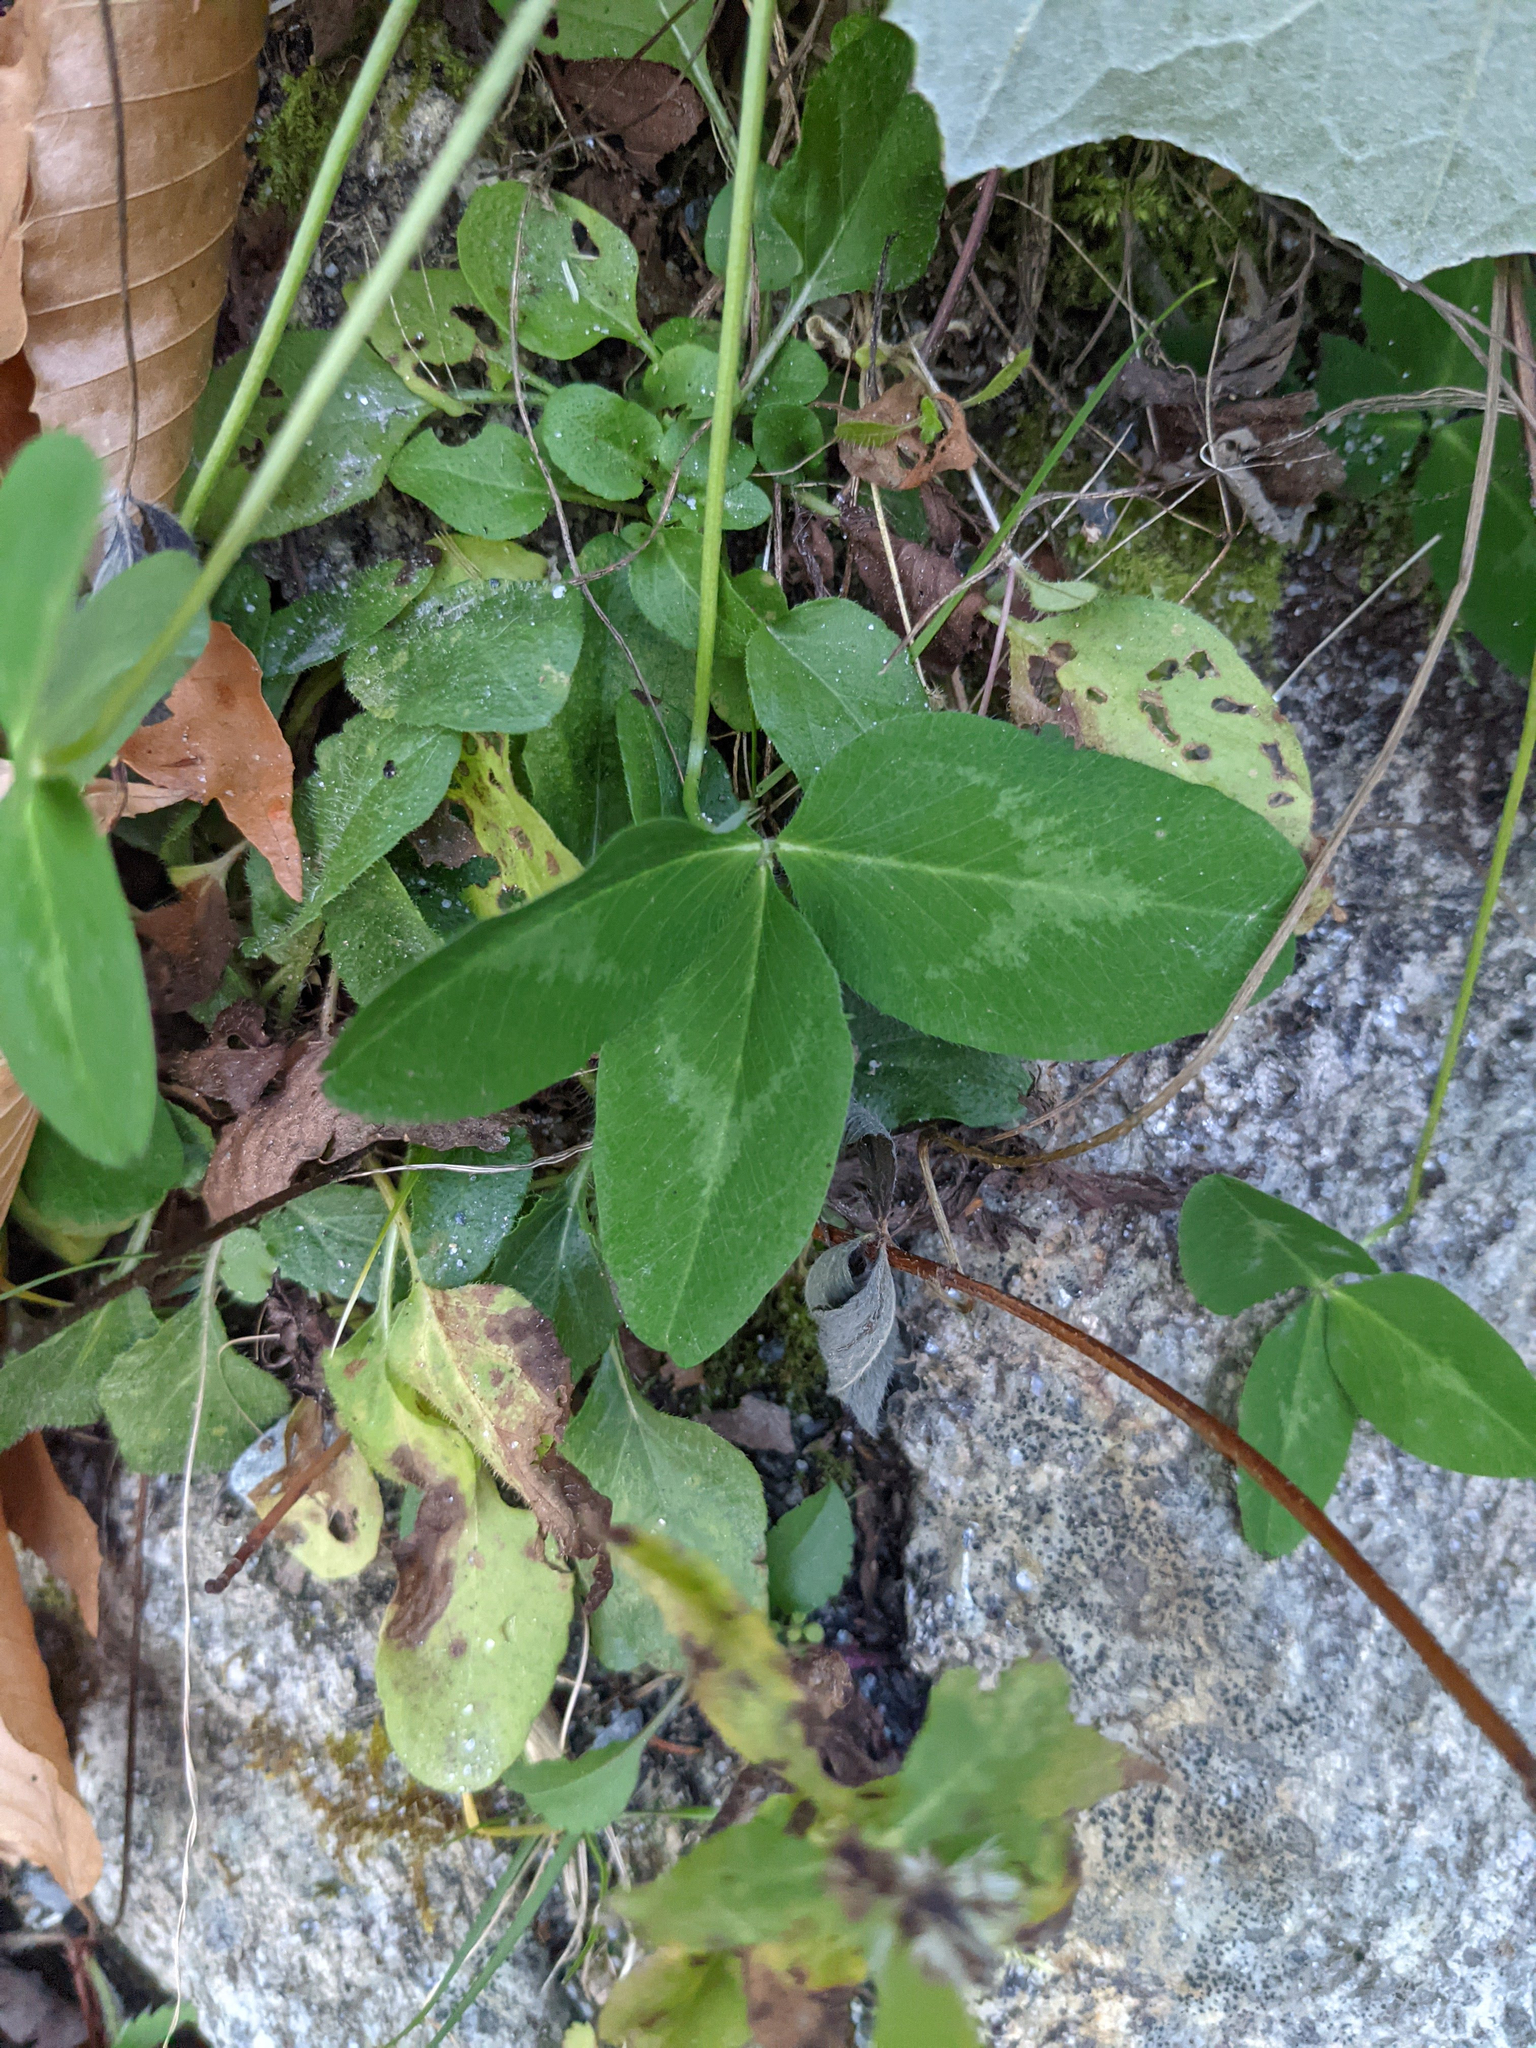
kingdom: Plantae
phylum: Tracheophyta
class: Magnoliopsida
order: Fabales
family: Fabaceae
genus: Trifolium
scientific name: Trifolium pratense
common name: Red clover
